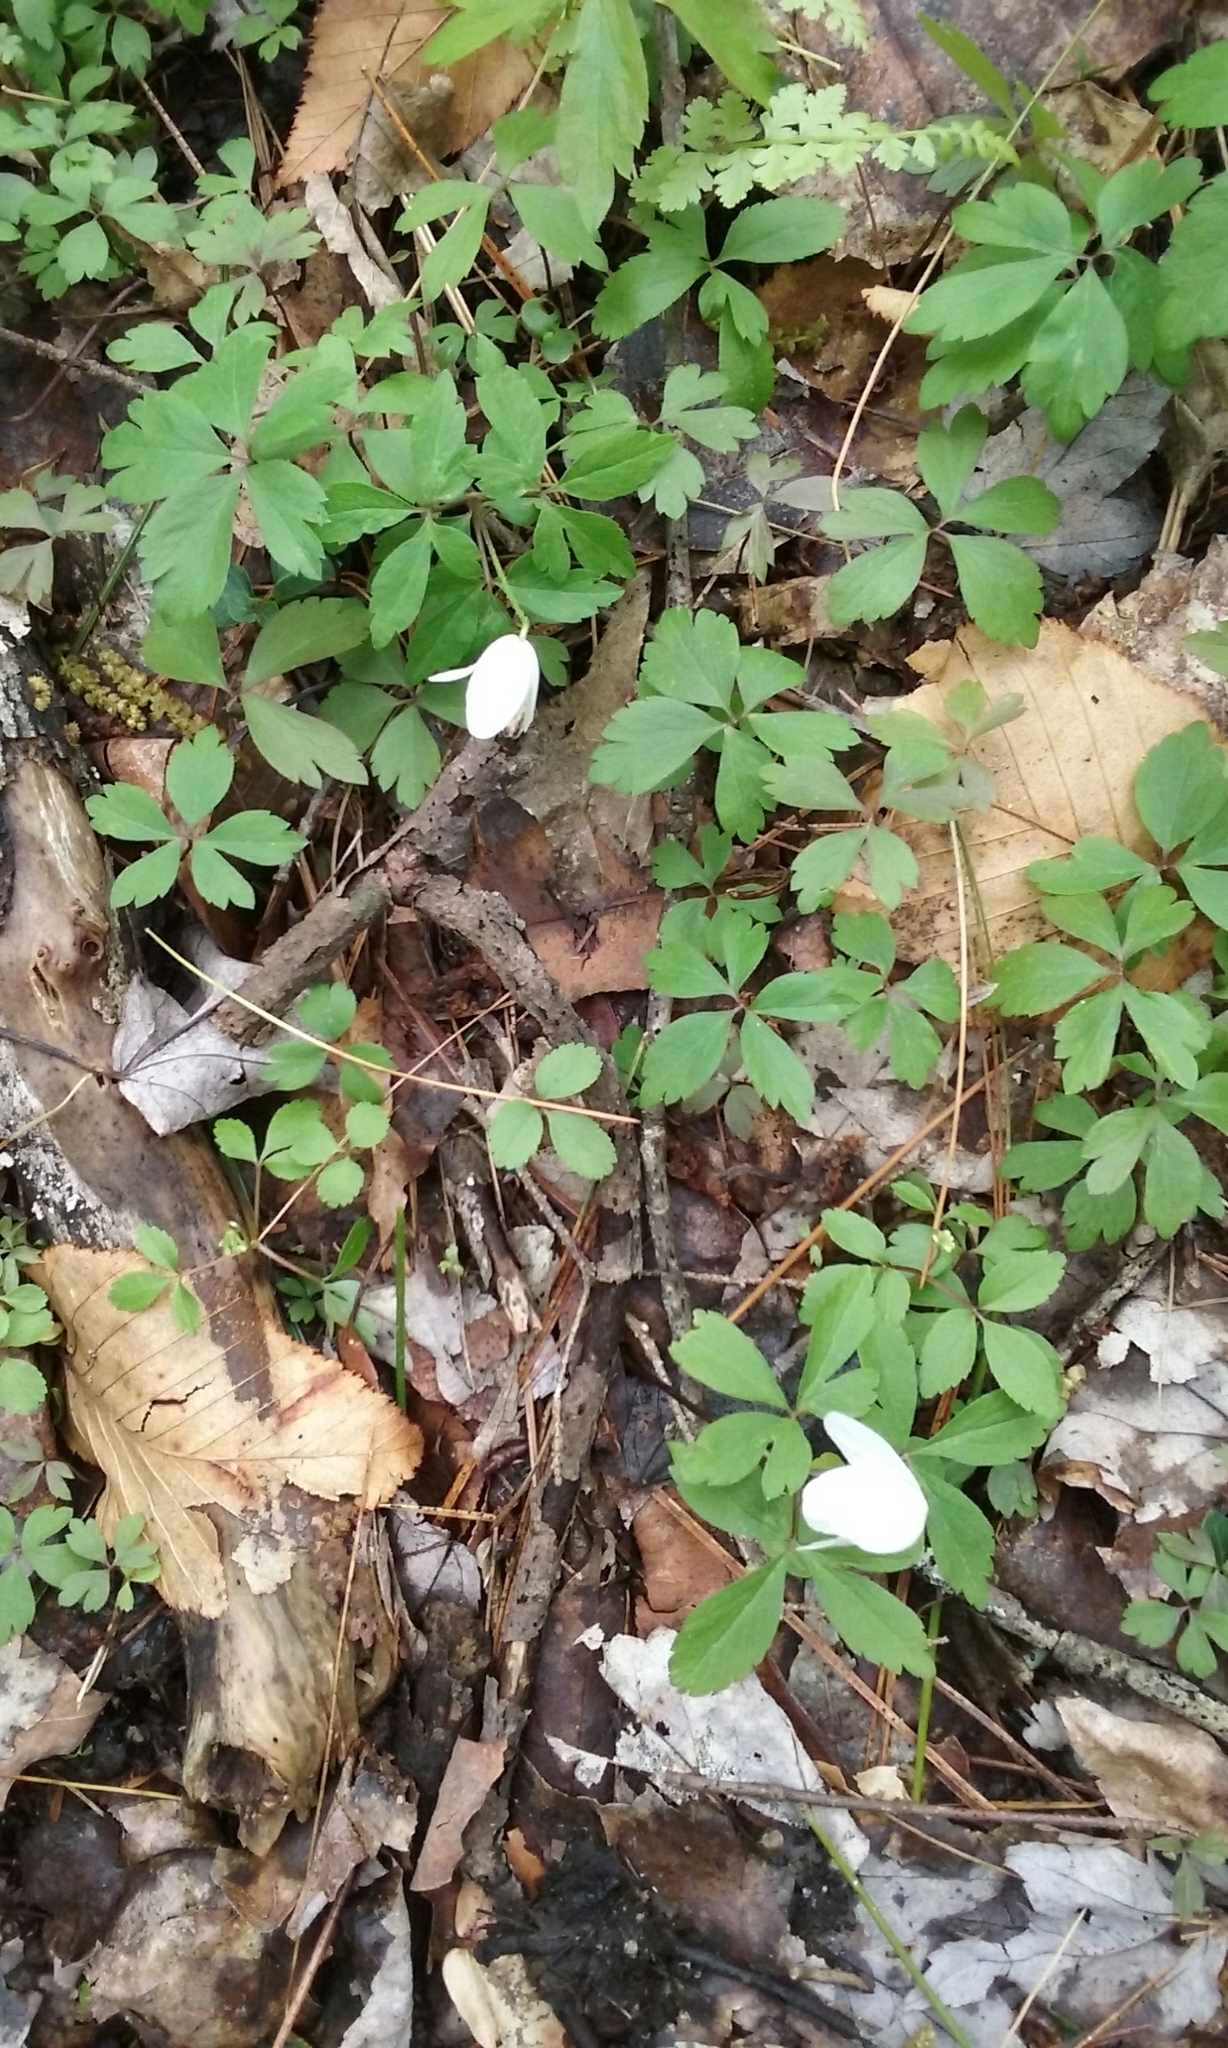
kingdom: Plantae
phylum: Tracheophyta
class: Magnoliopsida
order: Ranunculales
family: Ranunculaceae
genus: Anemone
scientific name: Anemone quinquefolia
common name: Wood anemone
